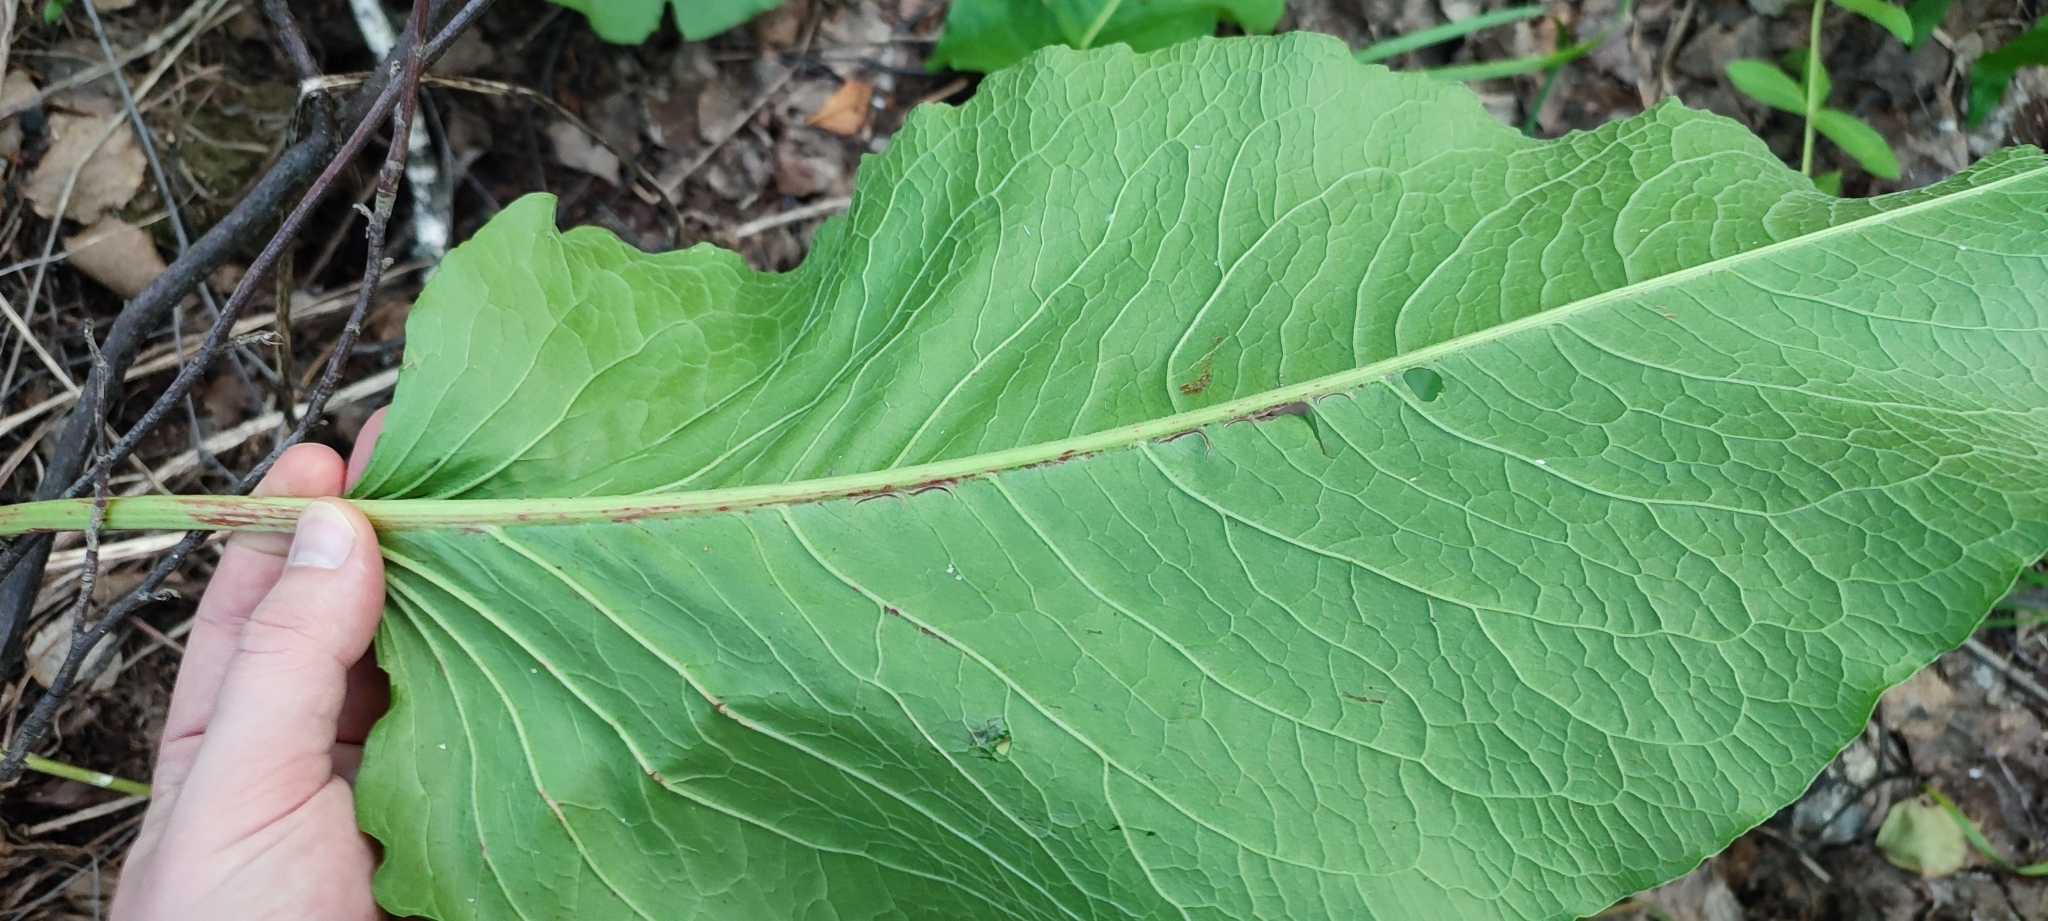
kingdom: Plantae
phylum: Tracheophyta
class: Magnoliopsida
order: Caryophyllales
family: Polygonaceae
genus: Rumex
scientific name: Rumex confertus
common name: Russian dock
